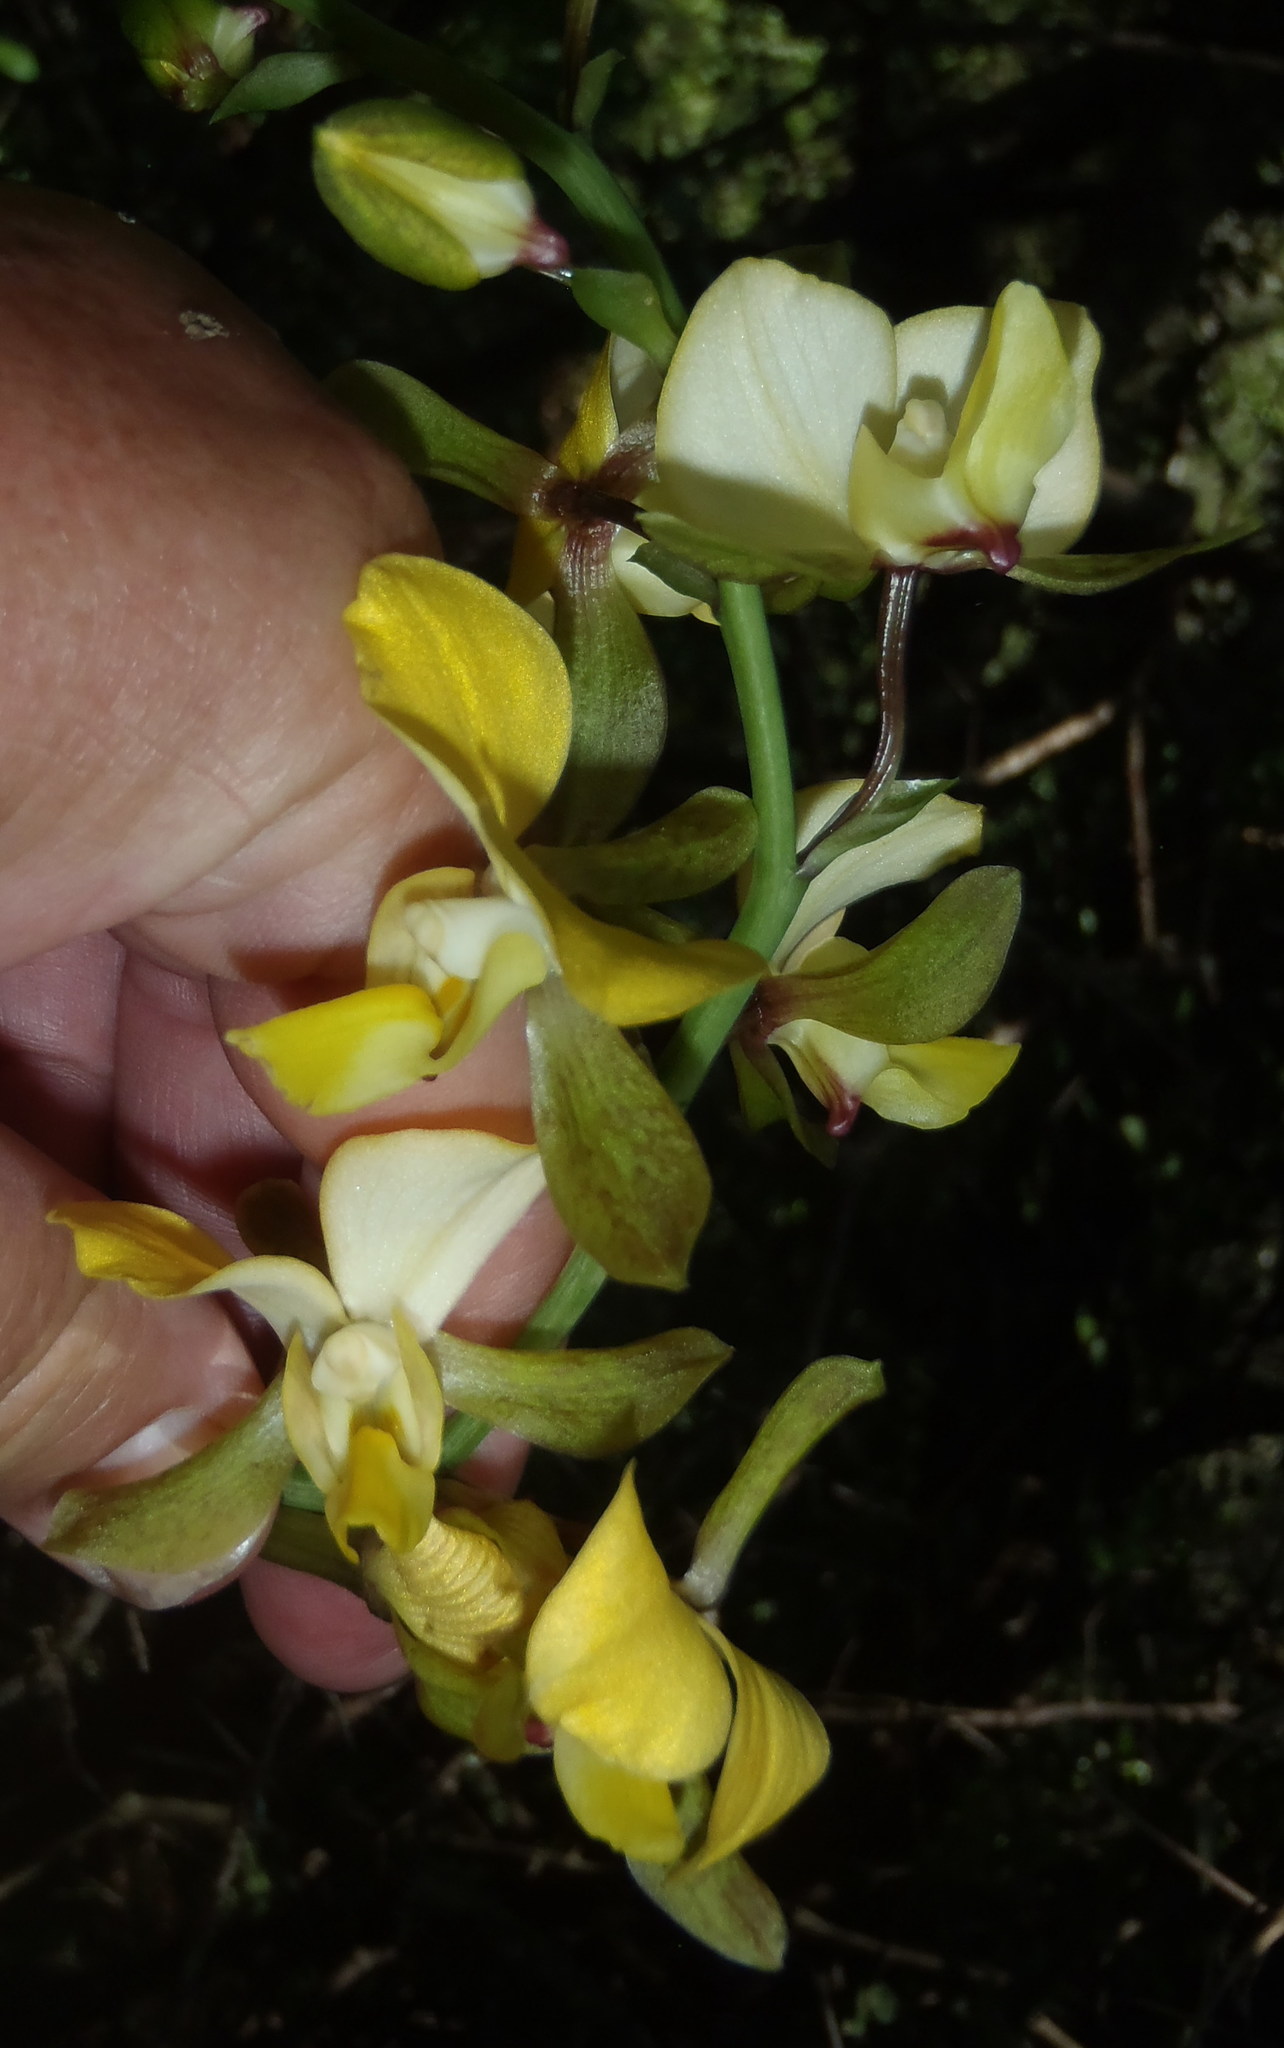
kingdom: Plantae
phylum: Tracheophyta
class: Liliopsida
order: Asparagales
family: Orchidaceae
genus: Eulophia
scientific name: Eulophia streptopetala
